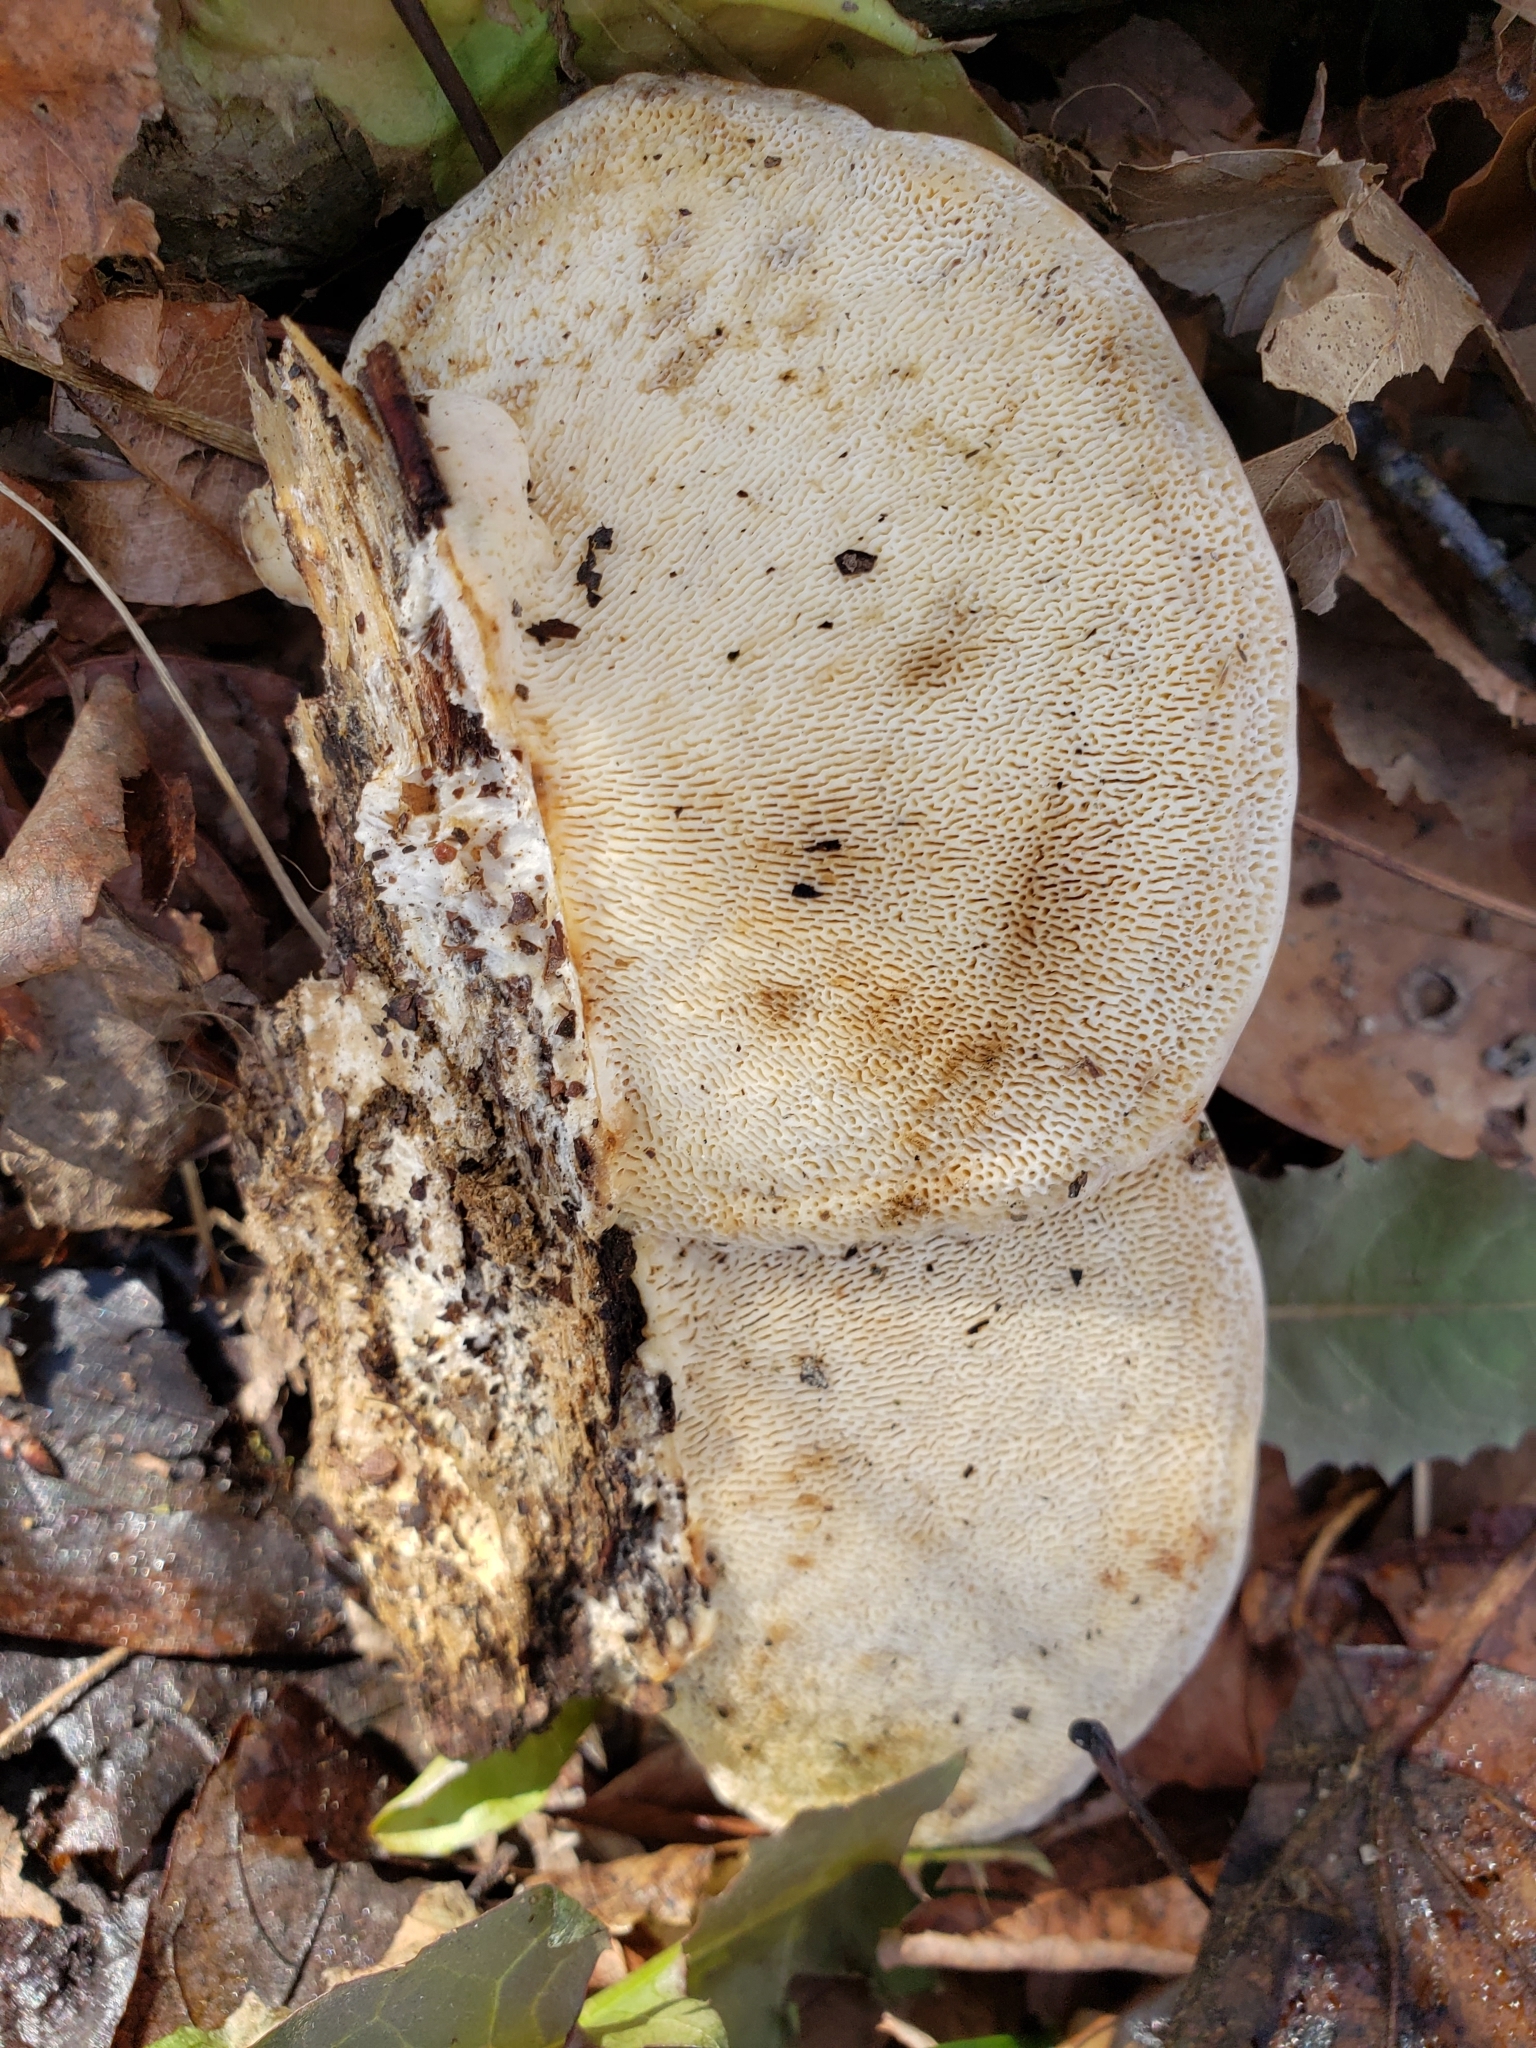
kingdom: Fungi
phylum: Basidiomycota
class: Agaricomycetes
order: Polyporales
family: Polyporaceae
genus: Trametes
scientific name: Trametes gibbosa
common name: Lumpy bracket
